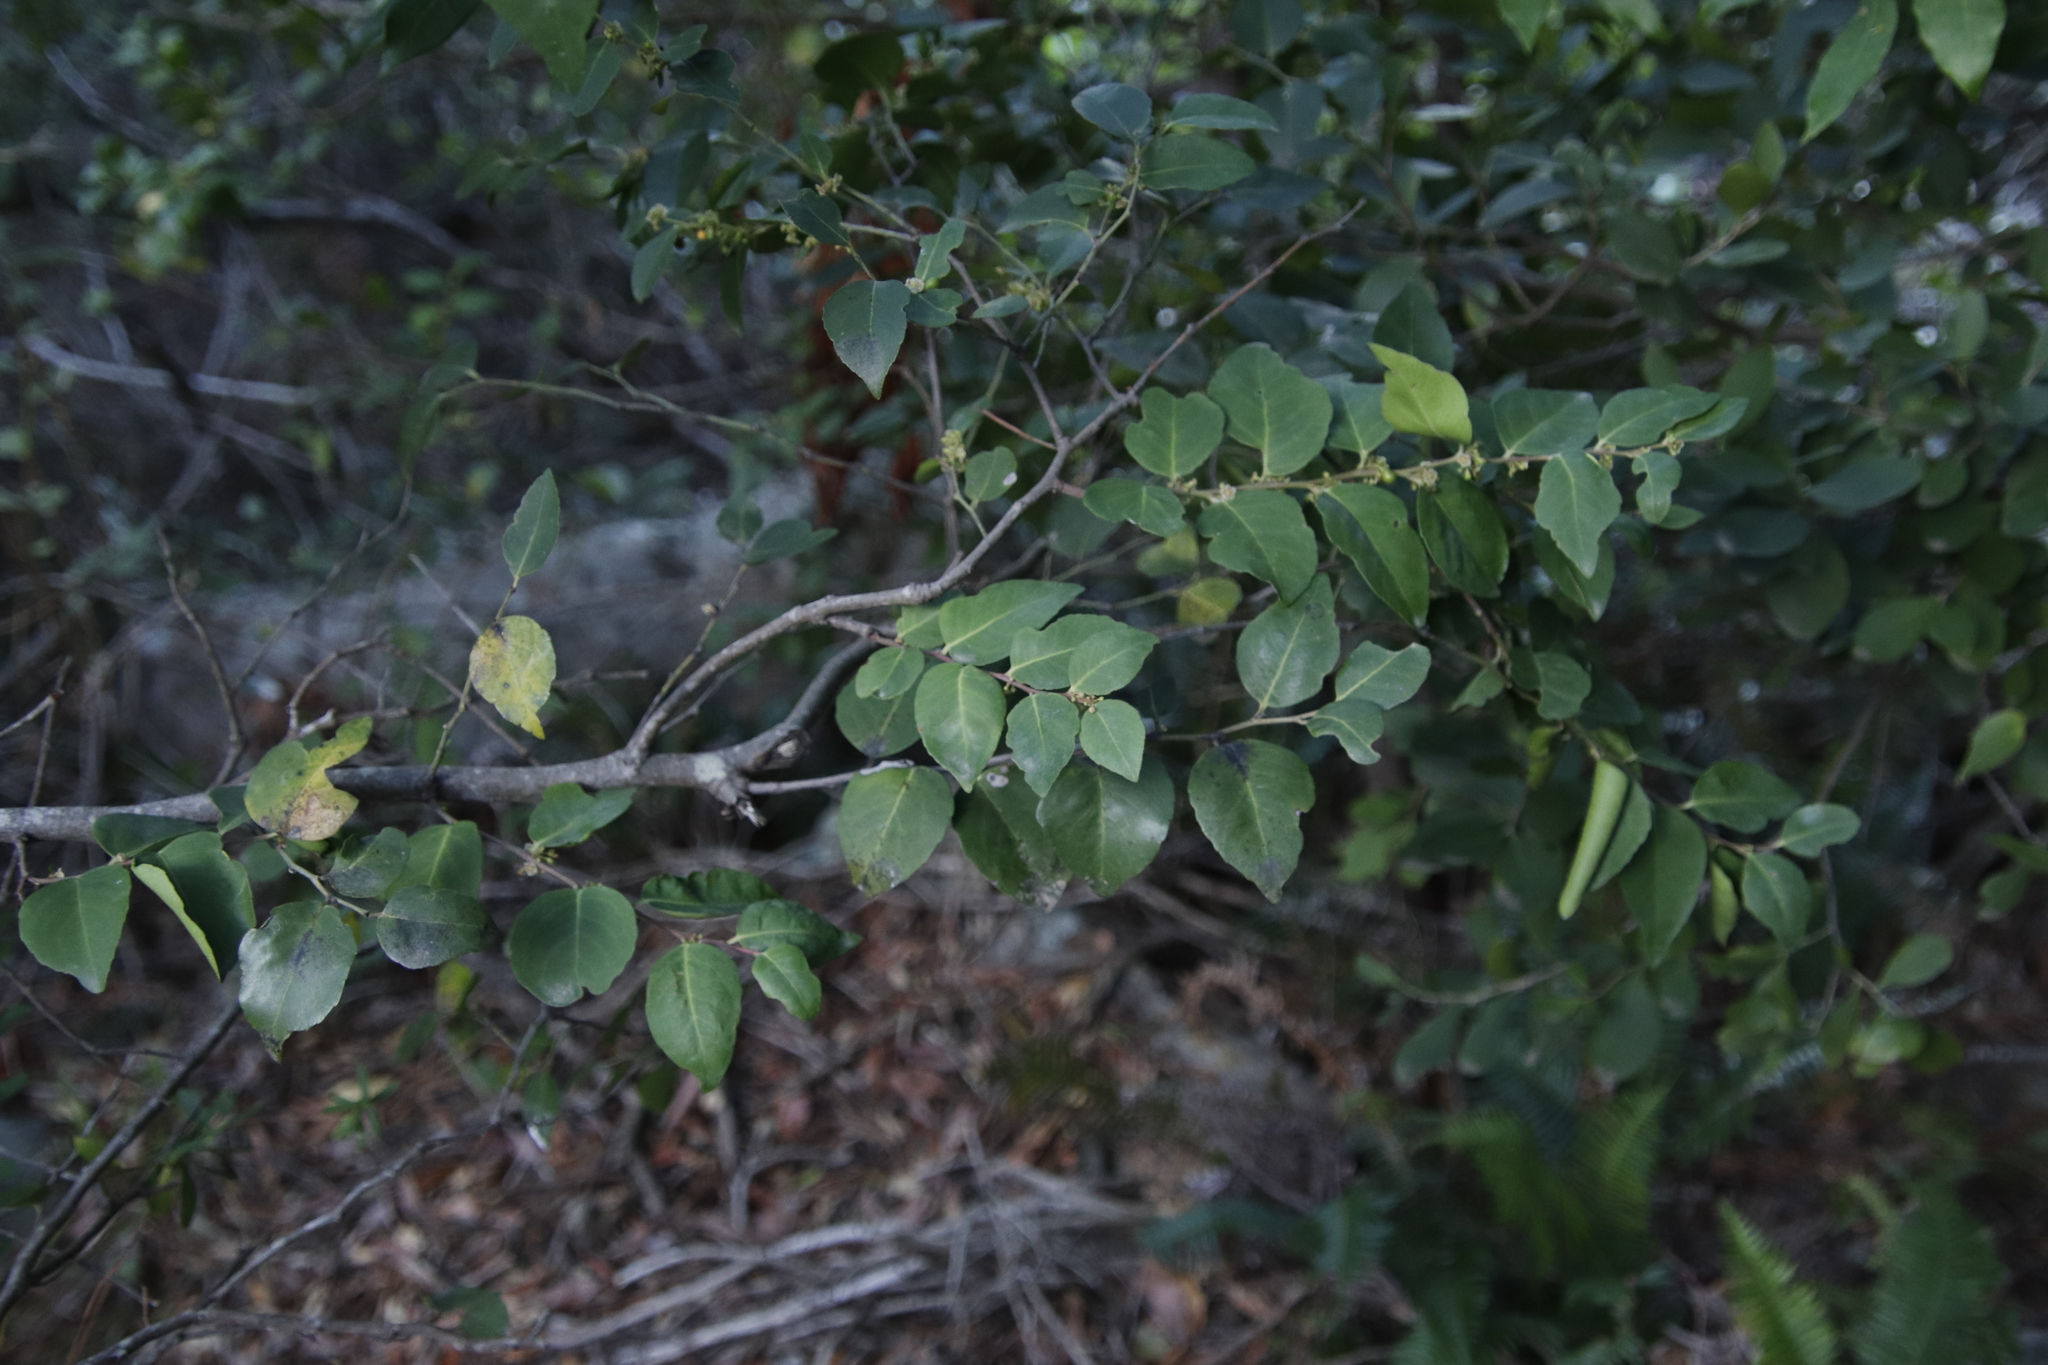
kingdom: Plantae
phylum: Tracheophyta
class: Magnoliopsida
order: Celastrales
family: Celastraceae
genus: Gymnosporia
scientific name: Gymnosporia acuminata
